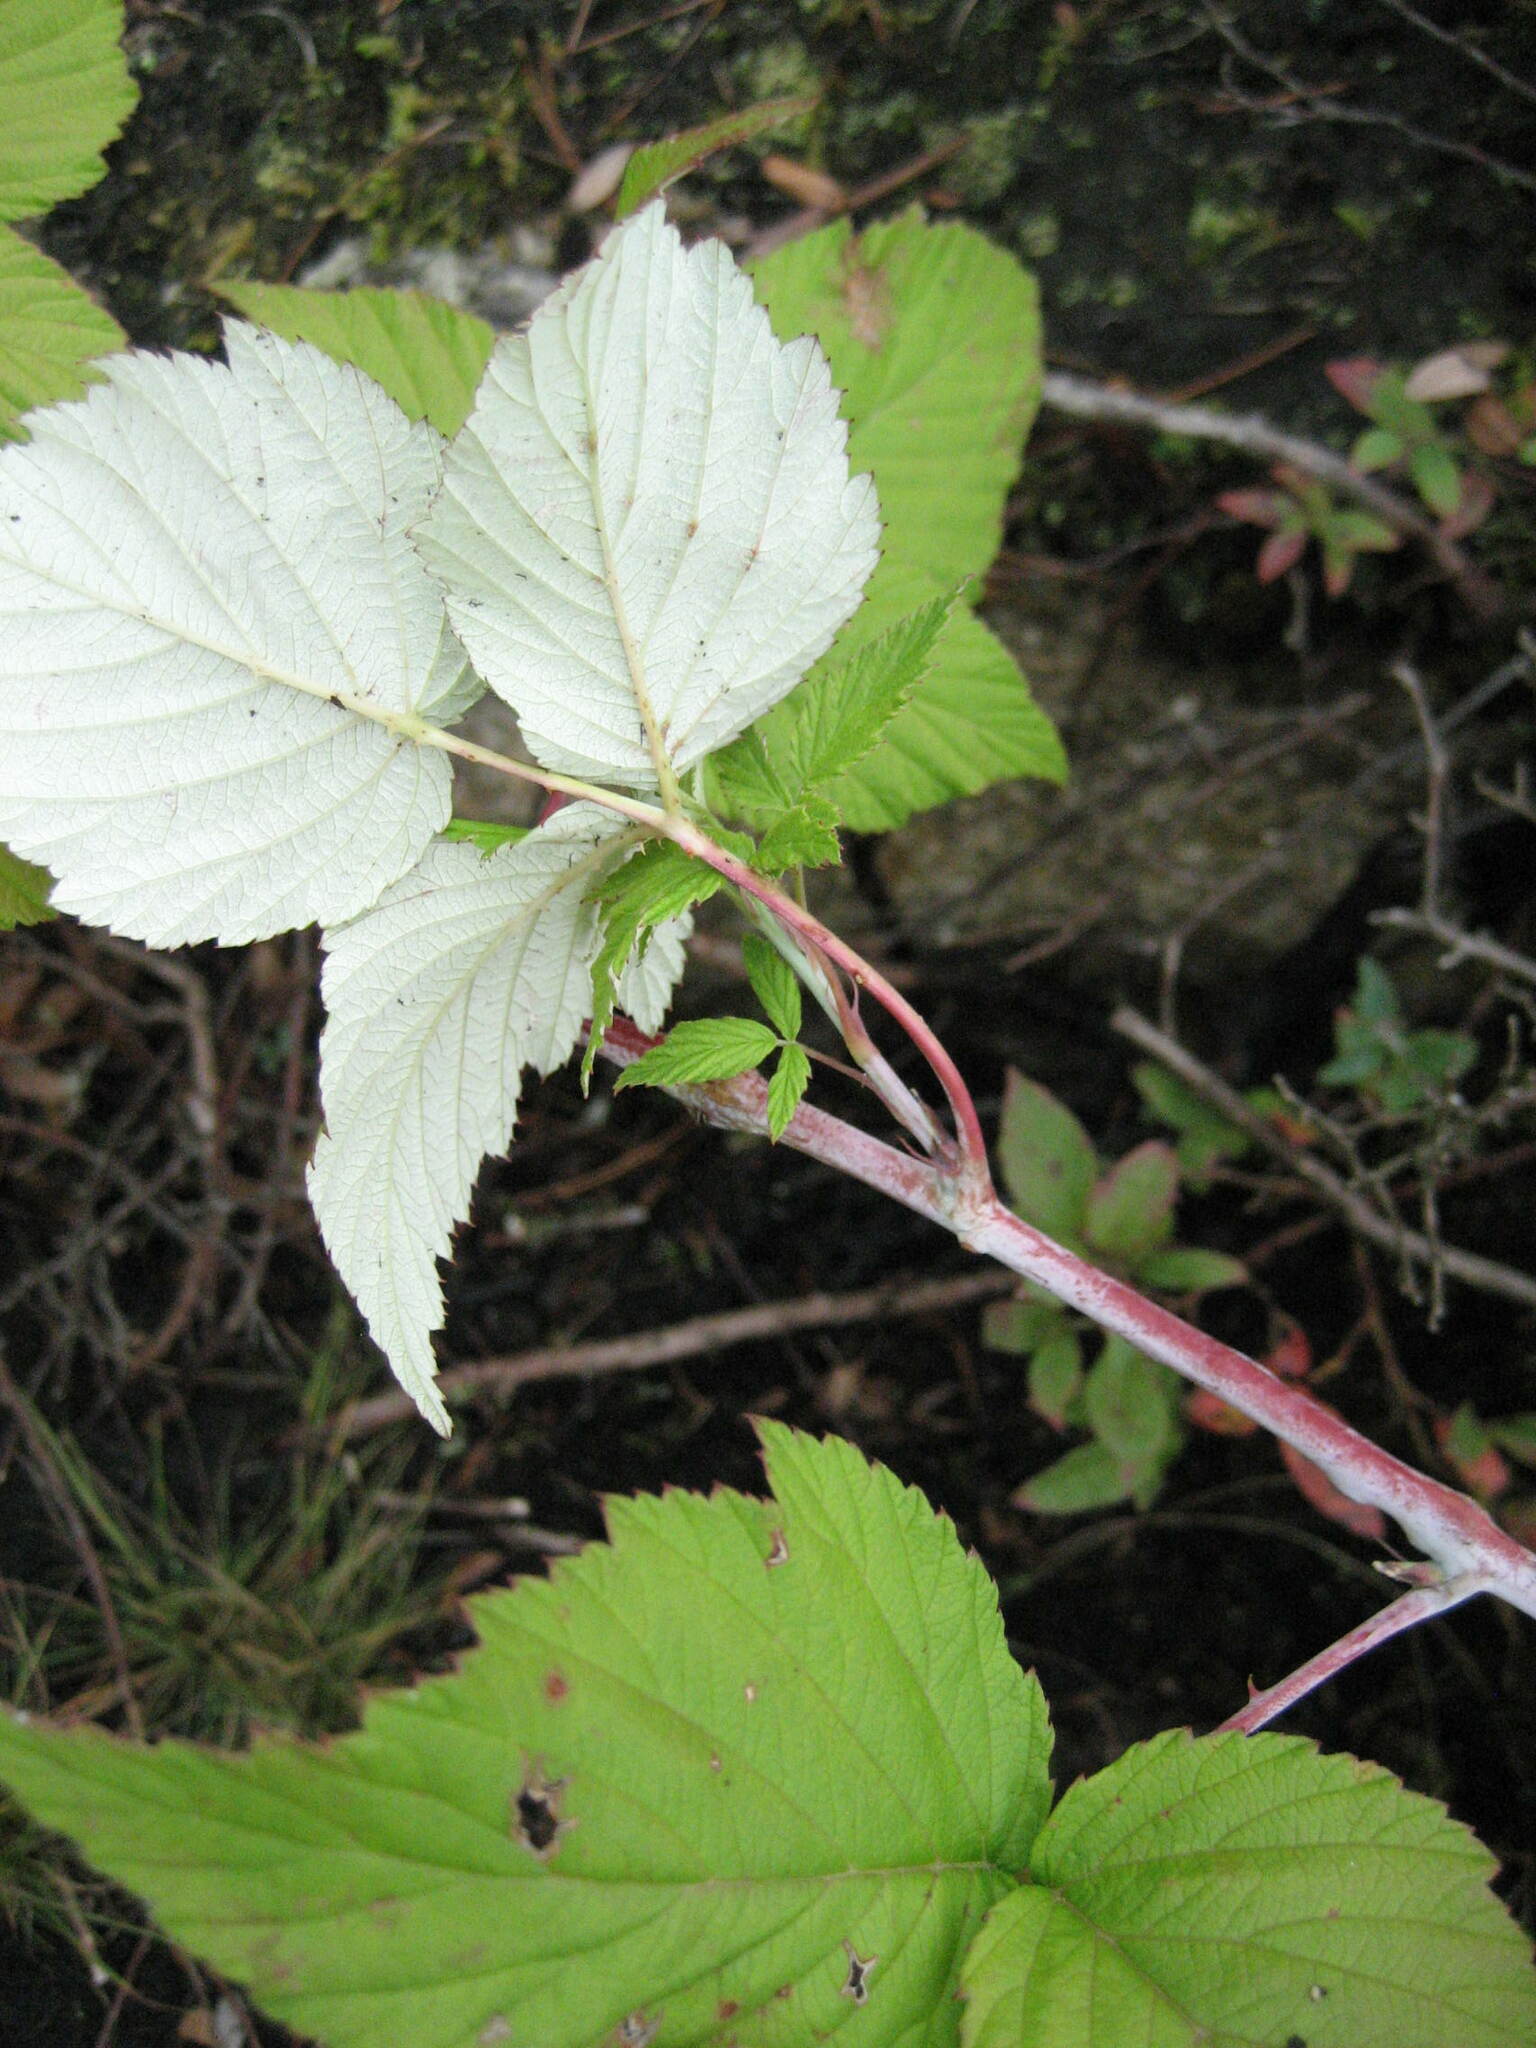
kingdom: Plantae
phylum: Tracheophyta
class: Magnoliopsida
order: Rosales
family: Rosaceae
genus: Rubus
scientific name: Rubus occidentalis
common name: Black raspberry
